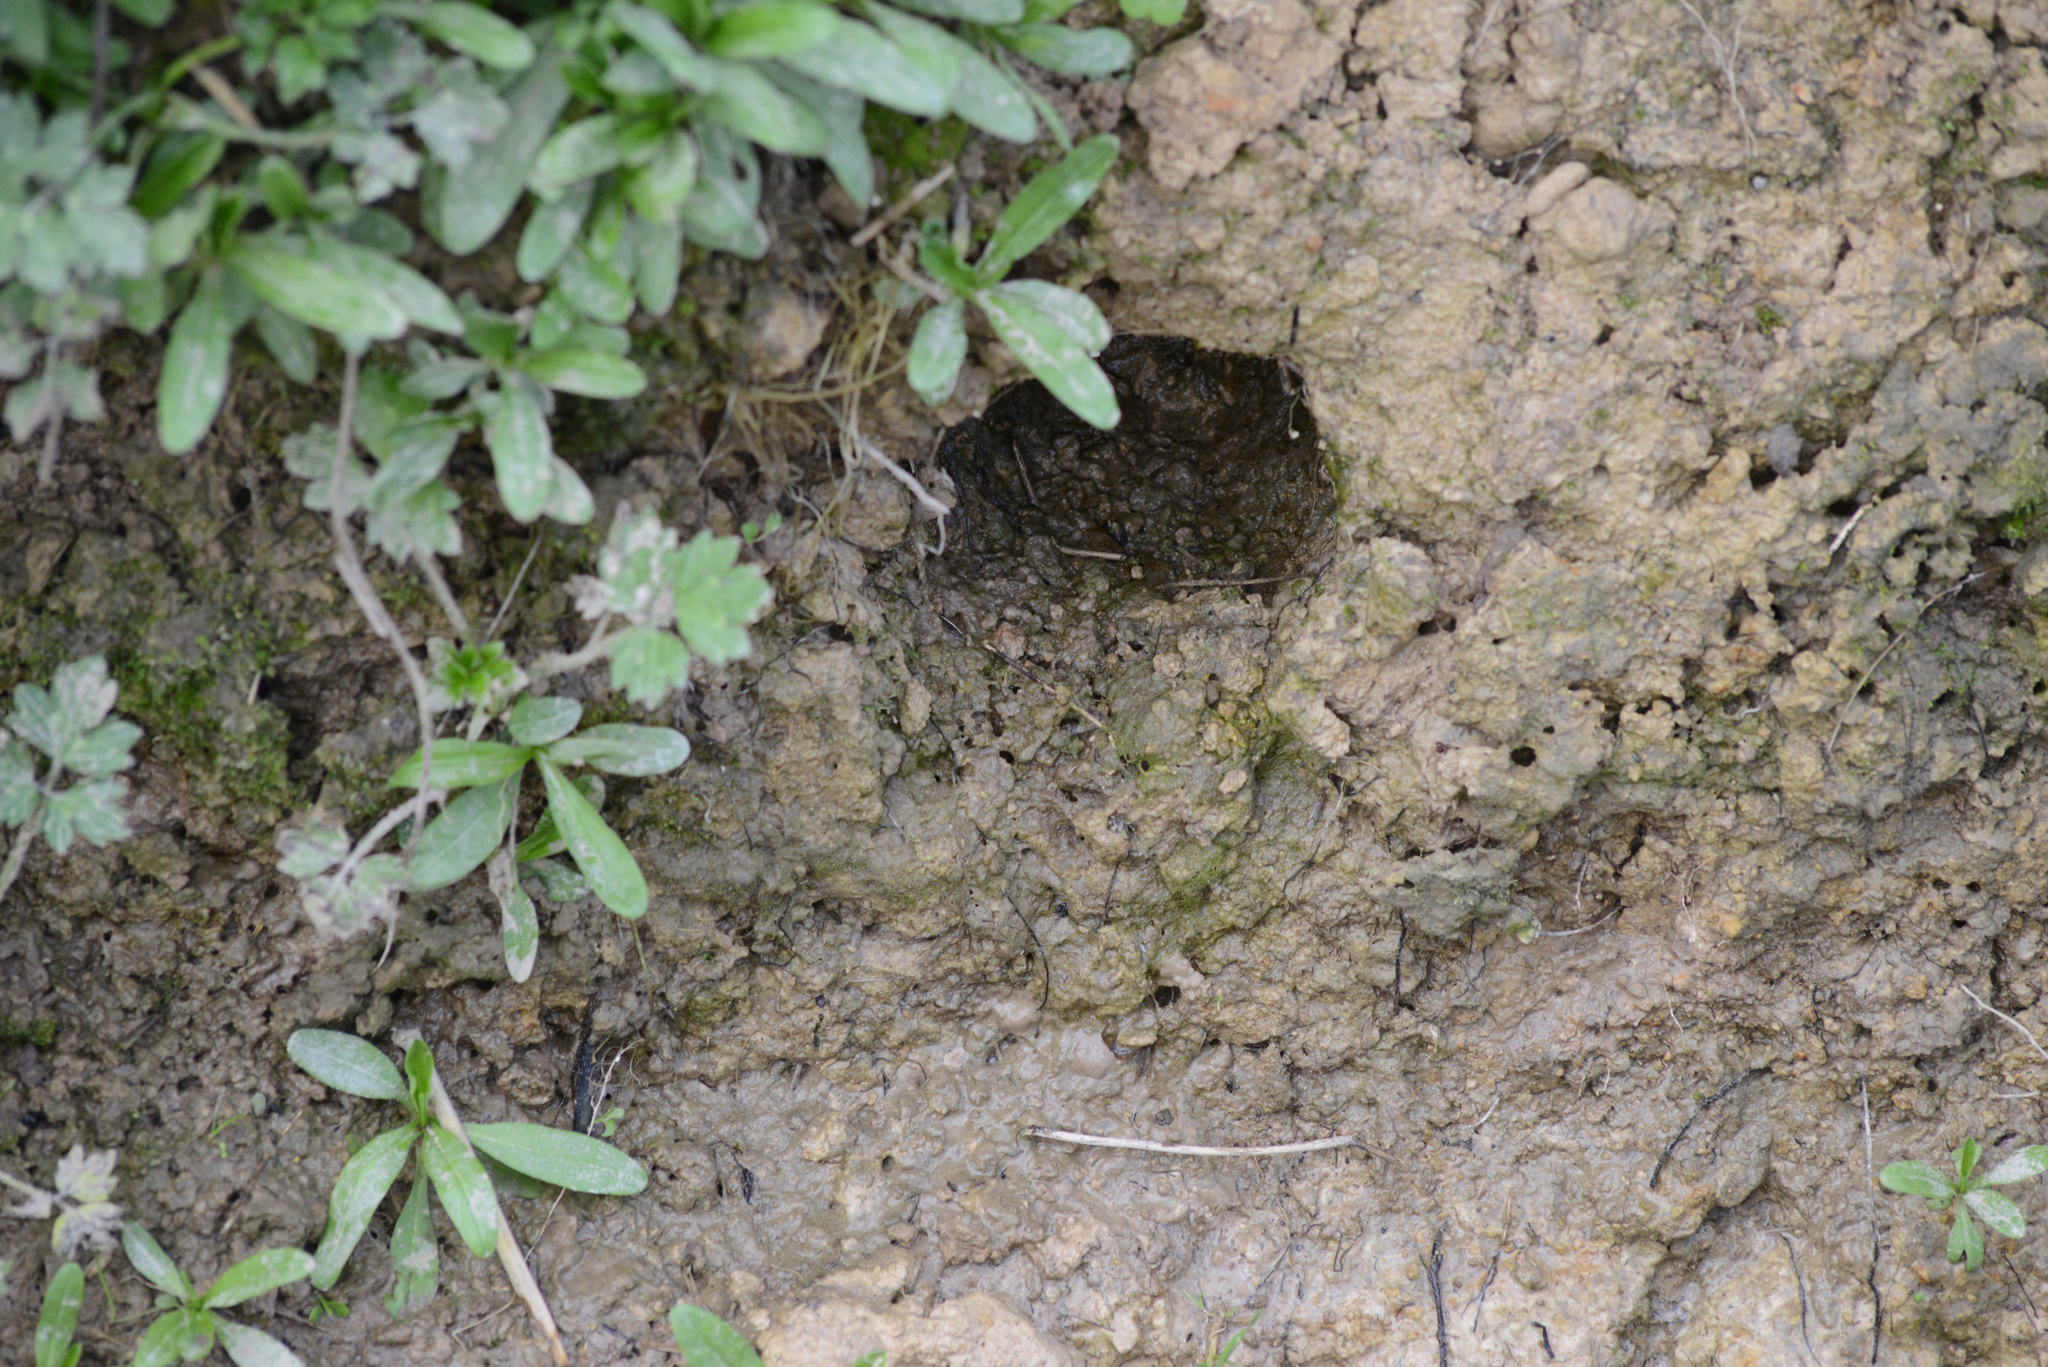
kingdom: Animalia
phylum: Chordata
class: Mammalia
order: Rodentia
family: Muridae
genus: Rattus
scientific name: Rattus norvegicus
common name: Brown rat
